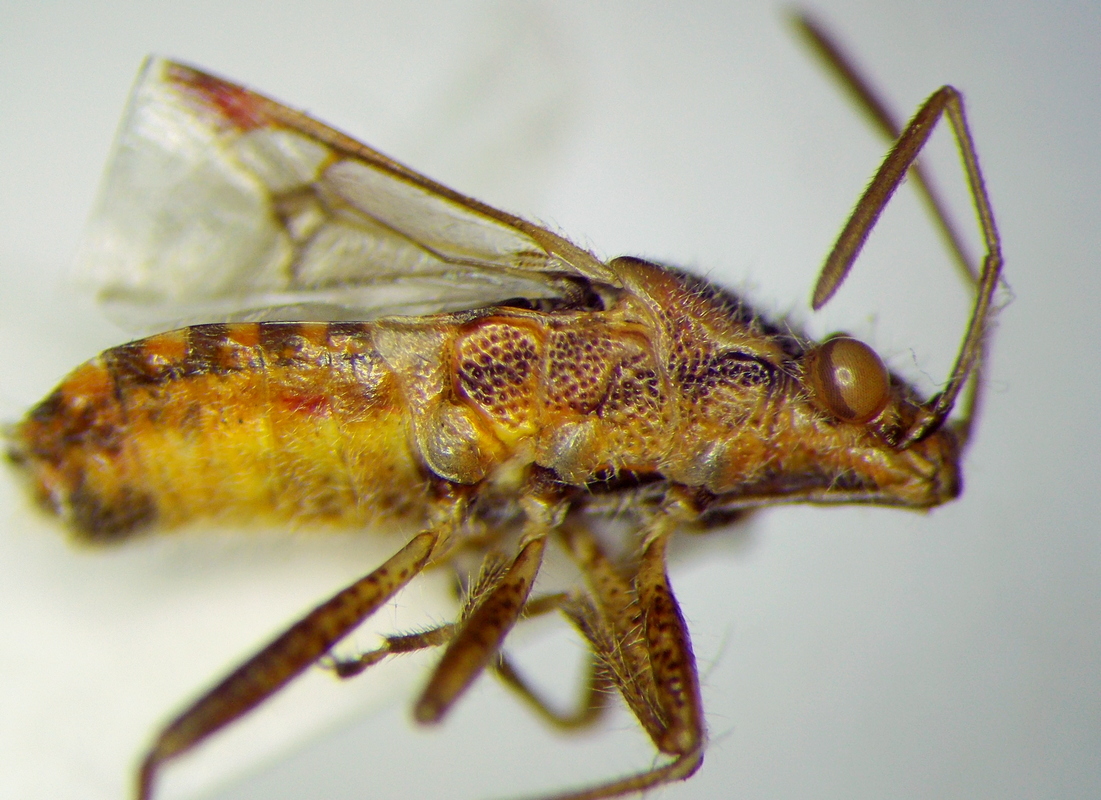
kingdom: Animalia
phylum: Arthropoda
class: Insecta
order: Hemiptera
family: Rhopalidae
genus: Liorhyssus
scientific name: Liorhyssus hyalinus
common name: Scentless plant bug
